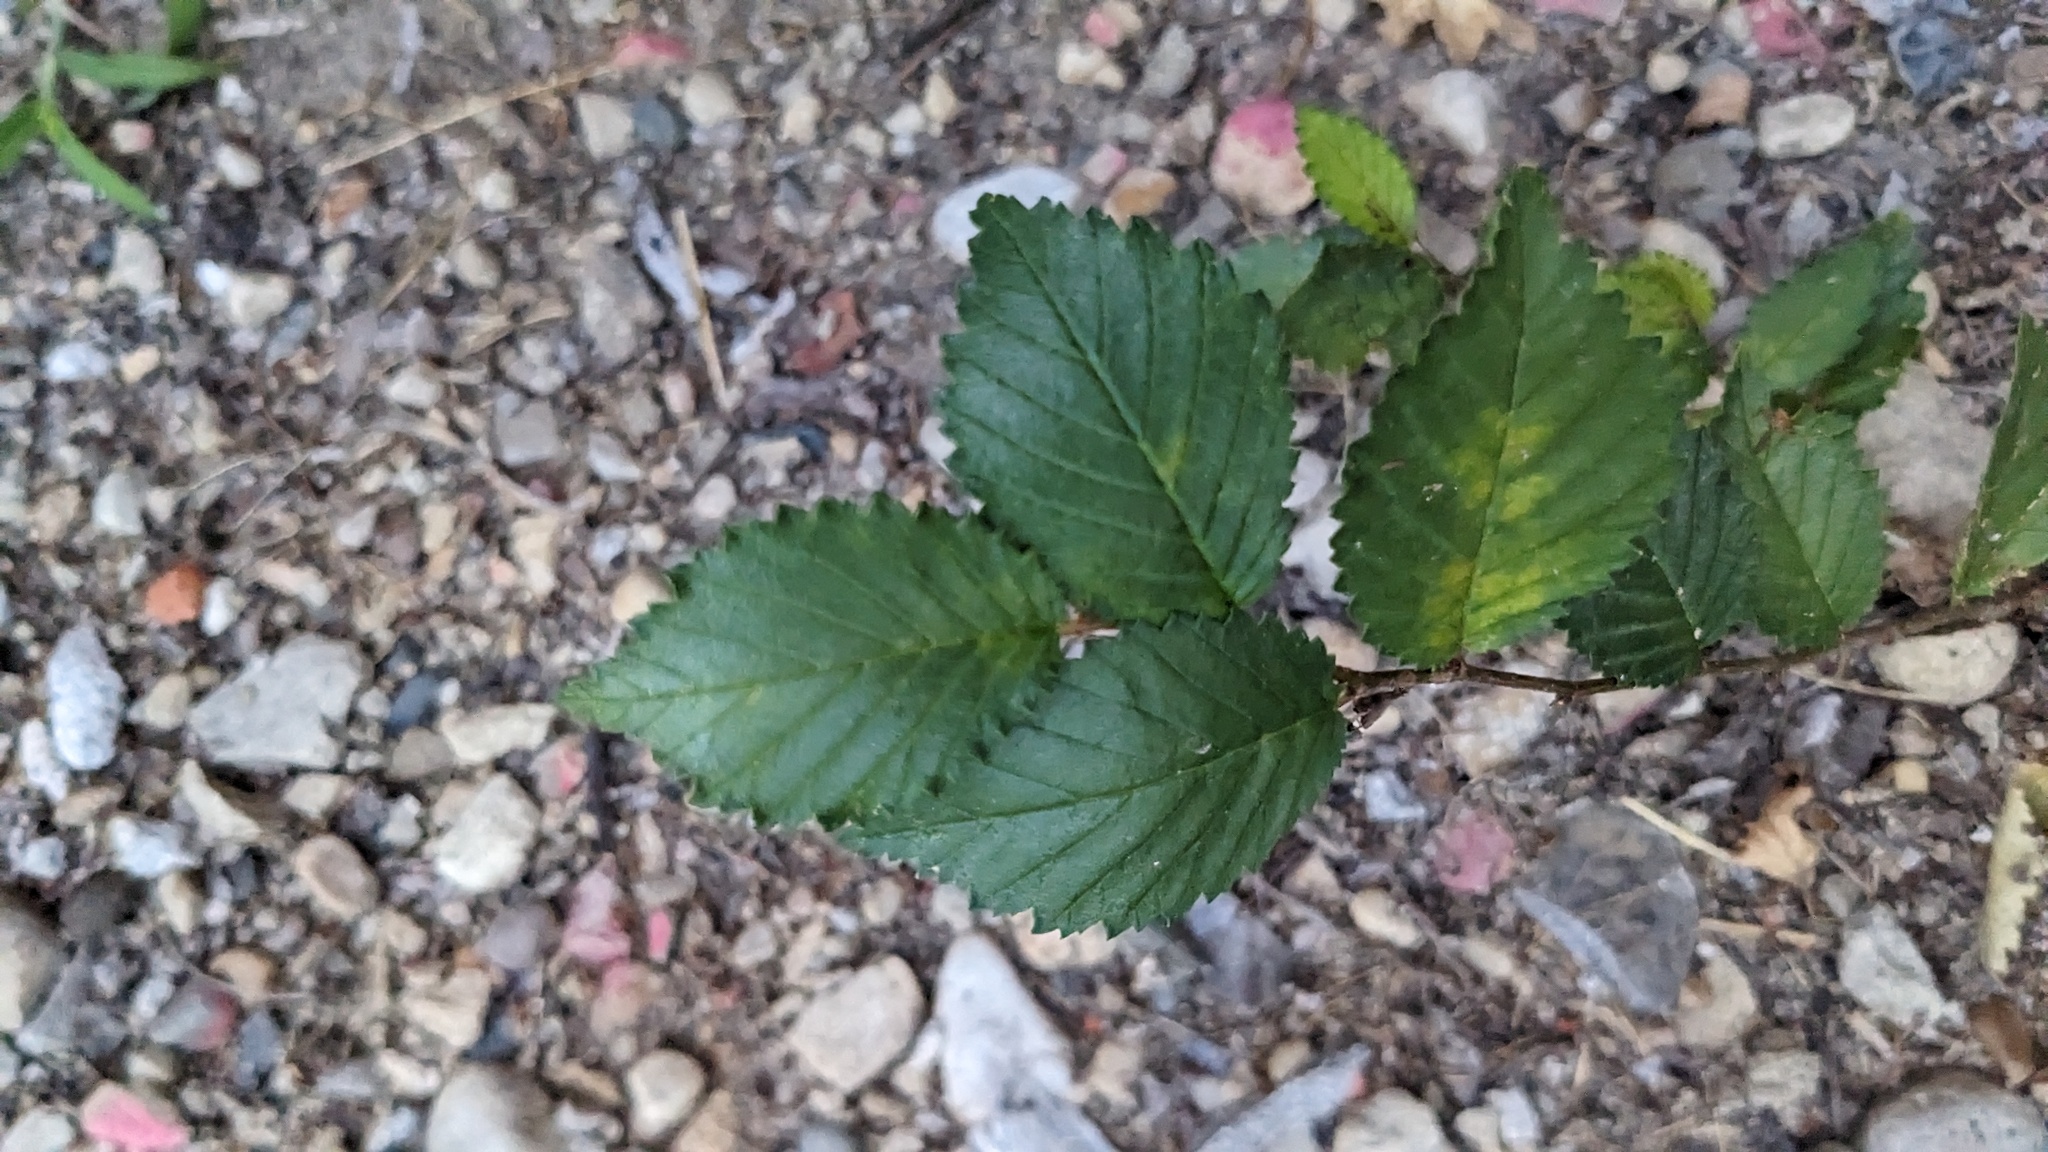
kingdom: Plantae
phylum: Tracheophyta
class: Magnoliopsida
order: Rosales
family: Ulmaceae
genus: Ulmus
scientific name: Ulmus pumila
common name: Siberian elm
